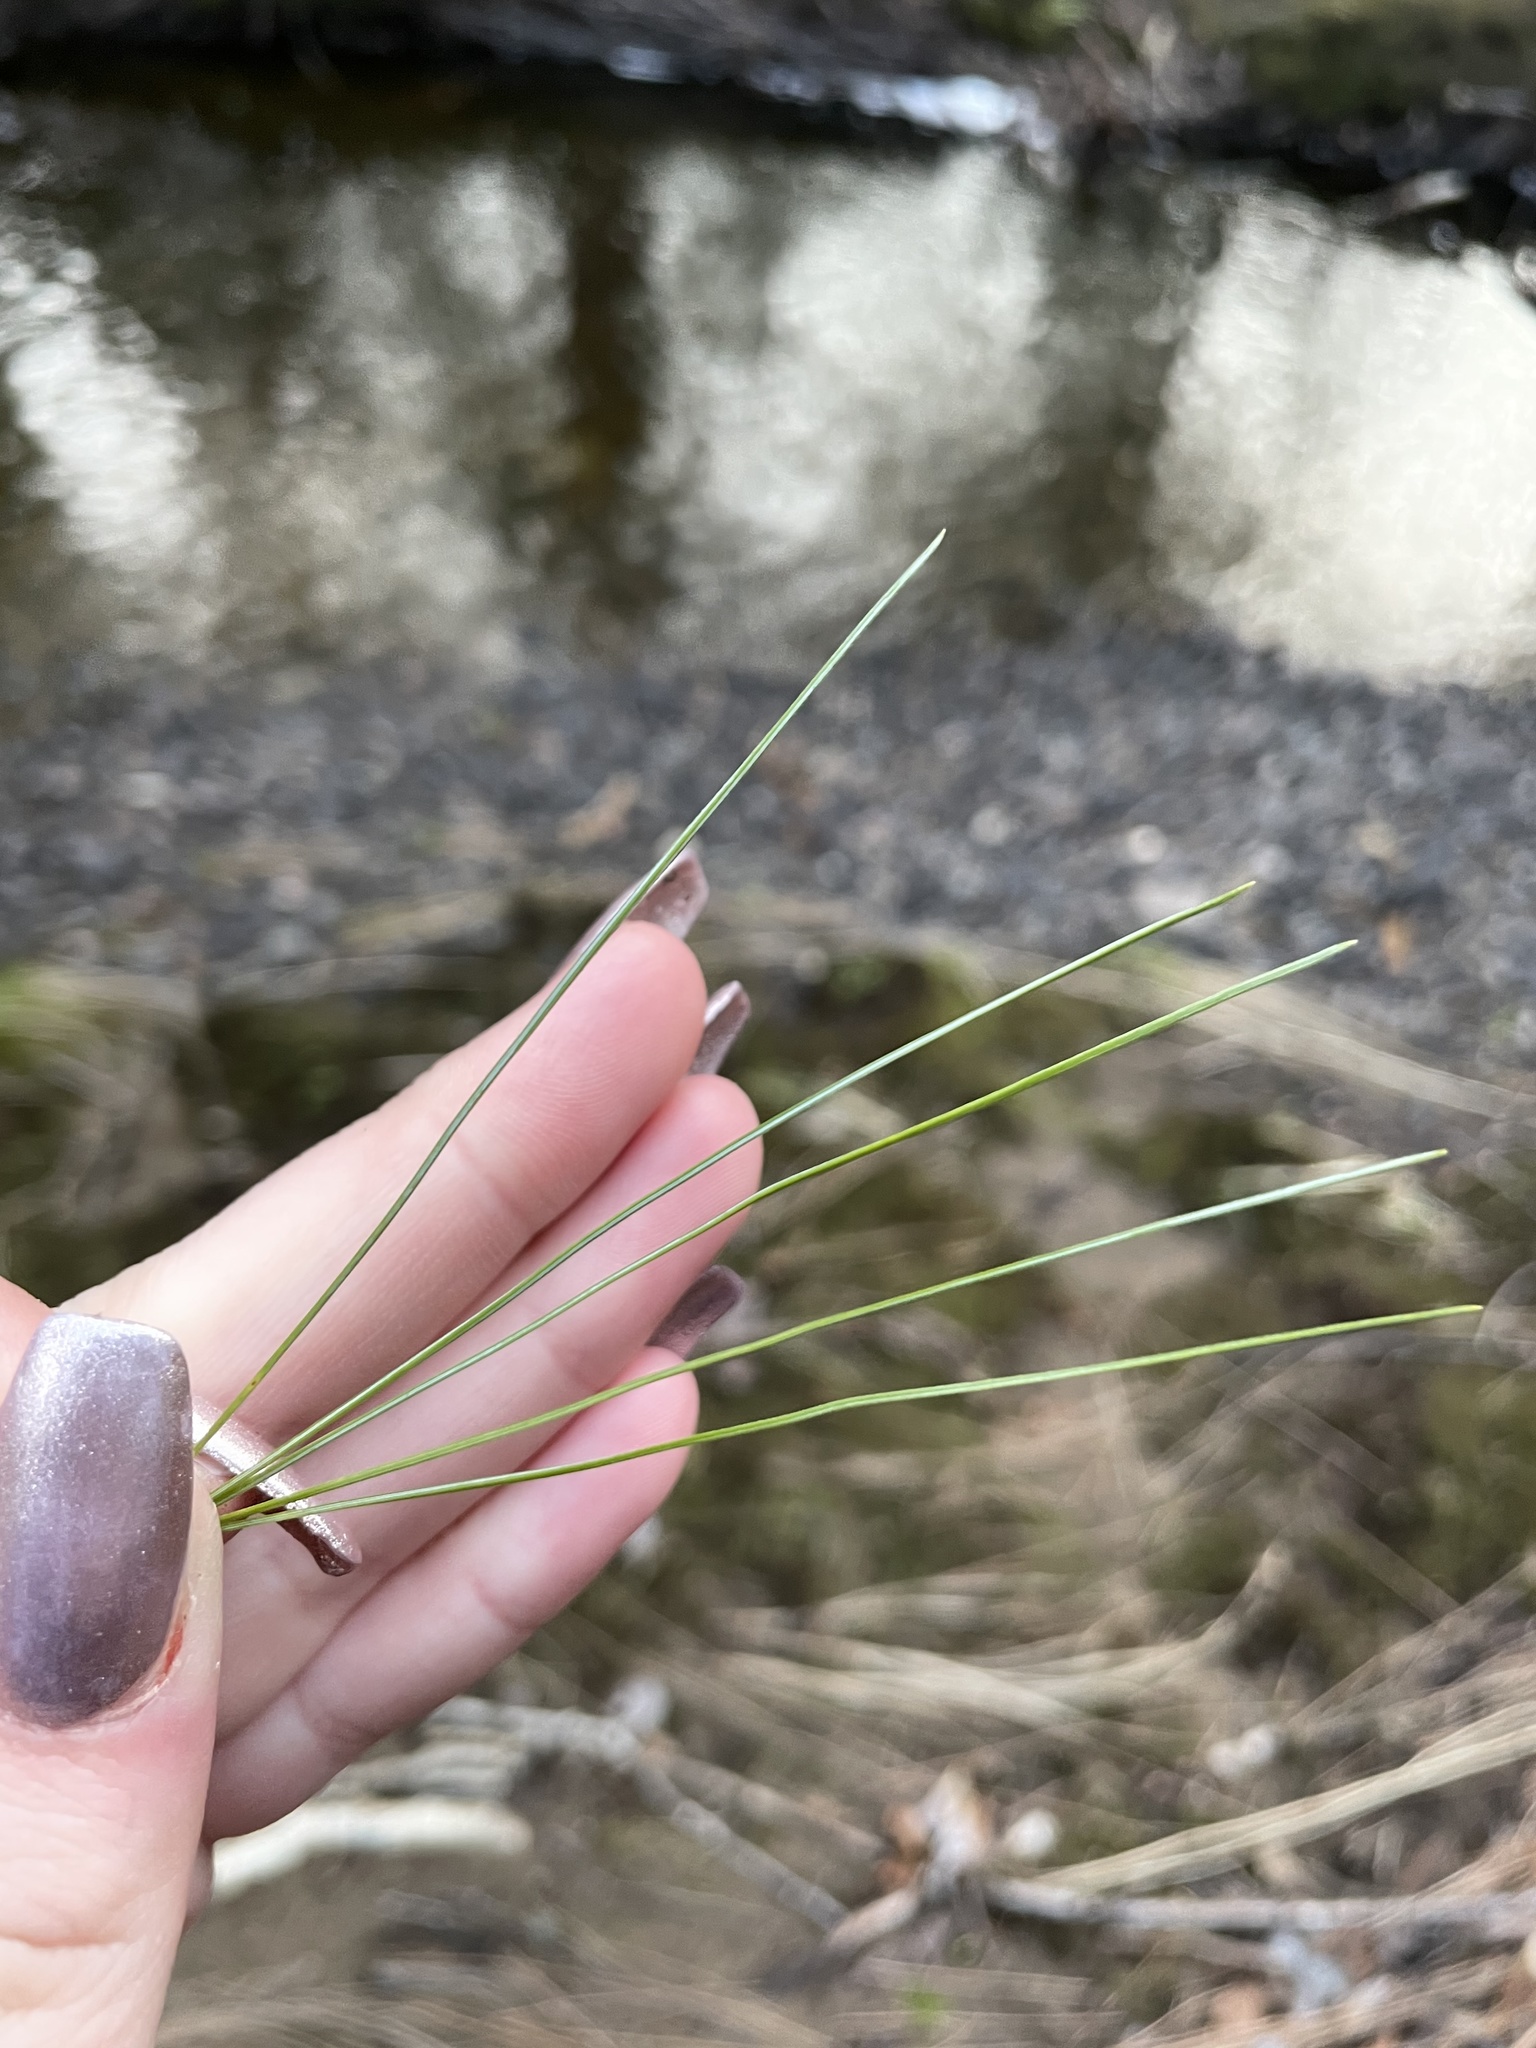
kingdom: Plantae
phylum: Tracheophyta
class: Pinopsida
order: Pinales
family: Pinaceae
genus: Pinus
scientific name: Pinus strobus
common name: Weymouth pine
